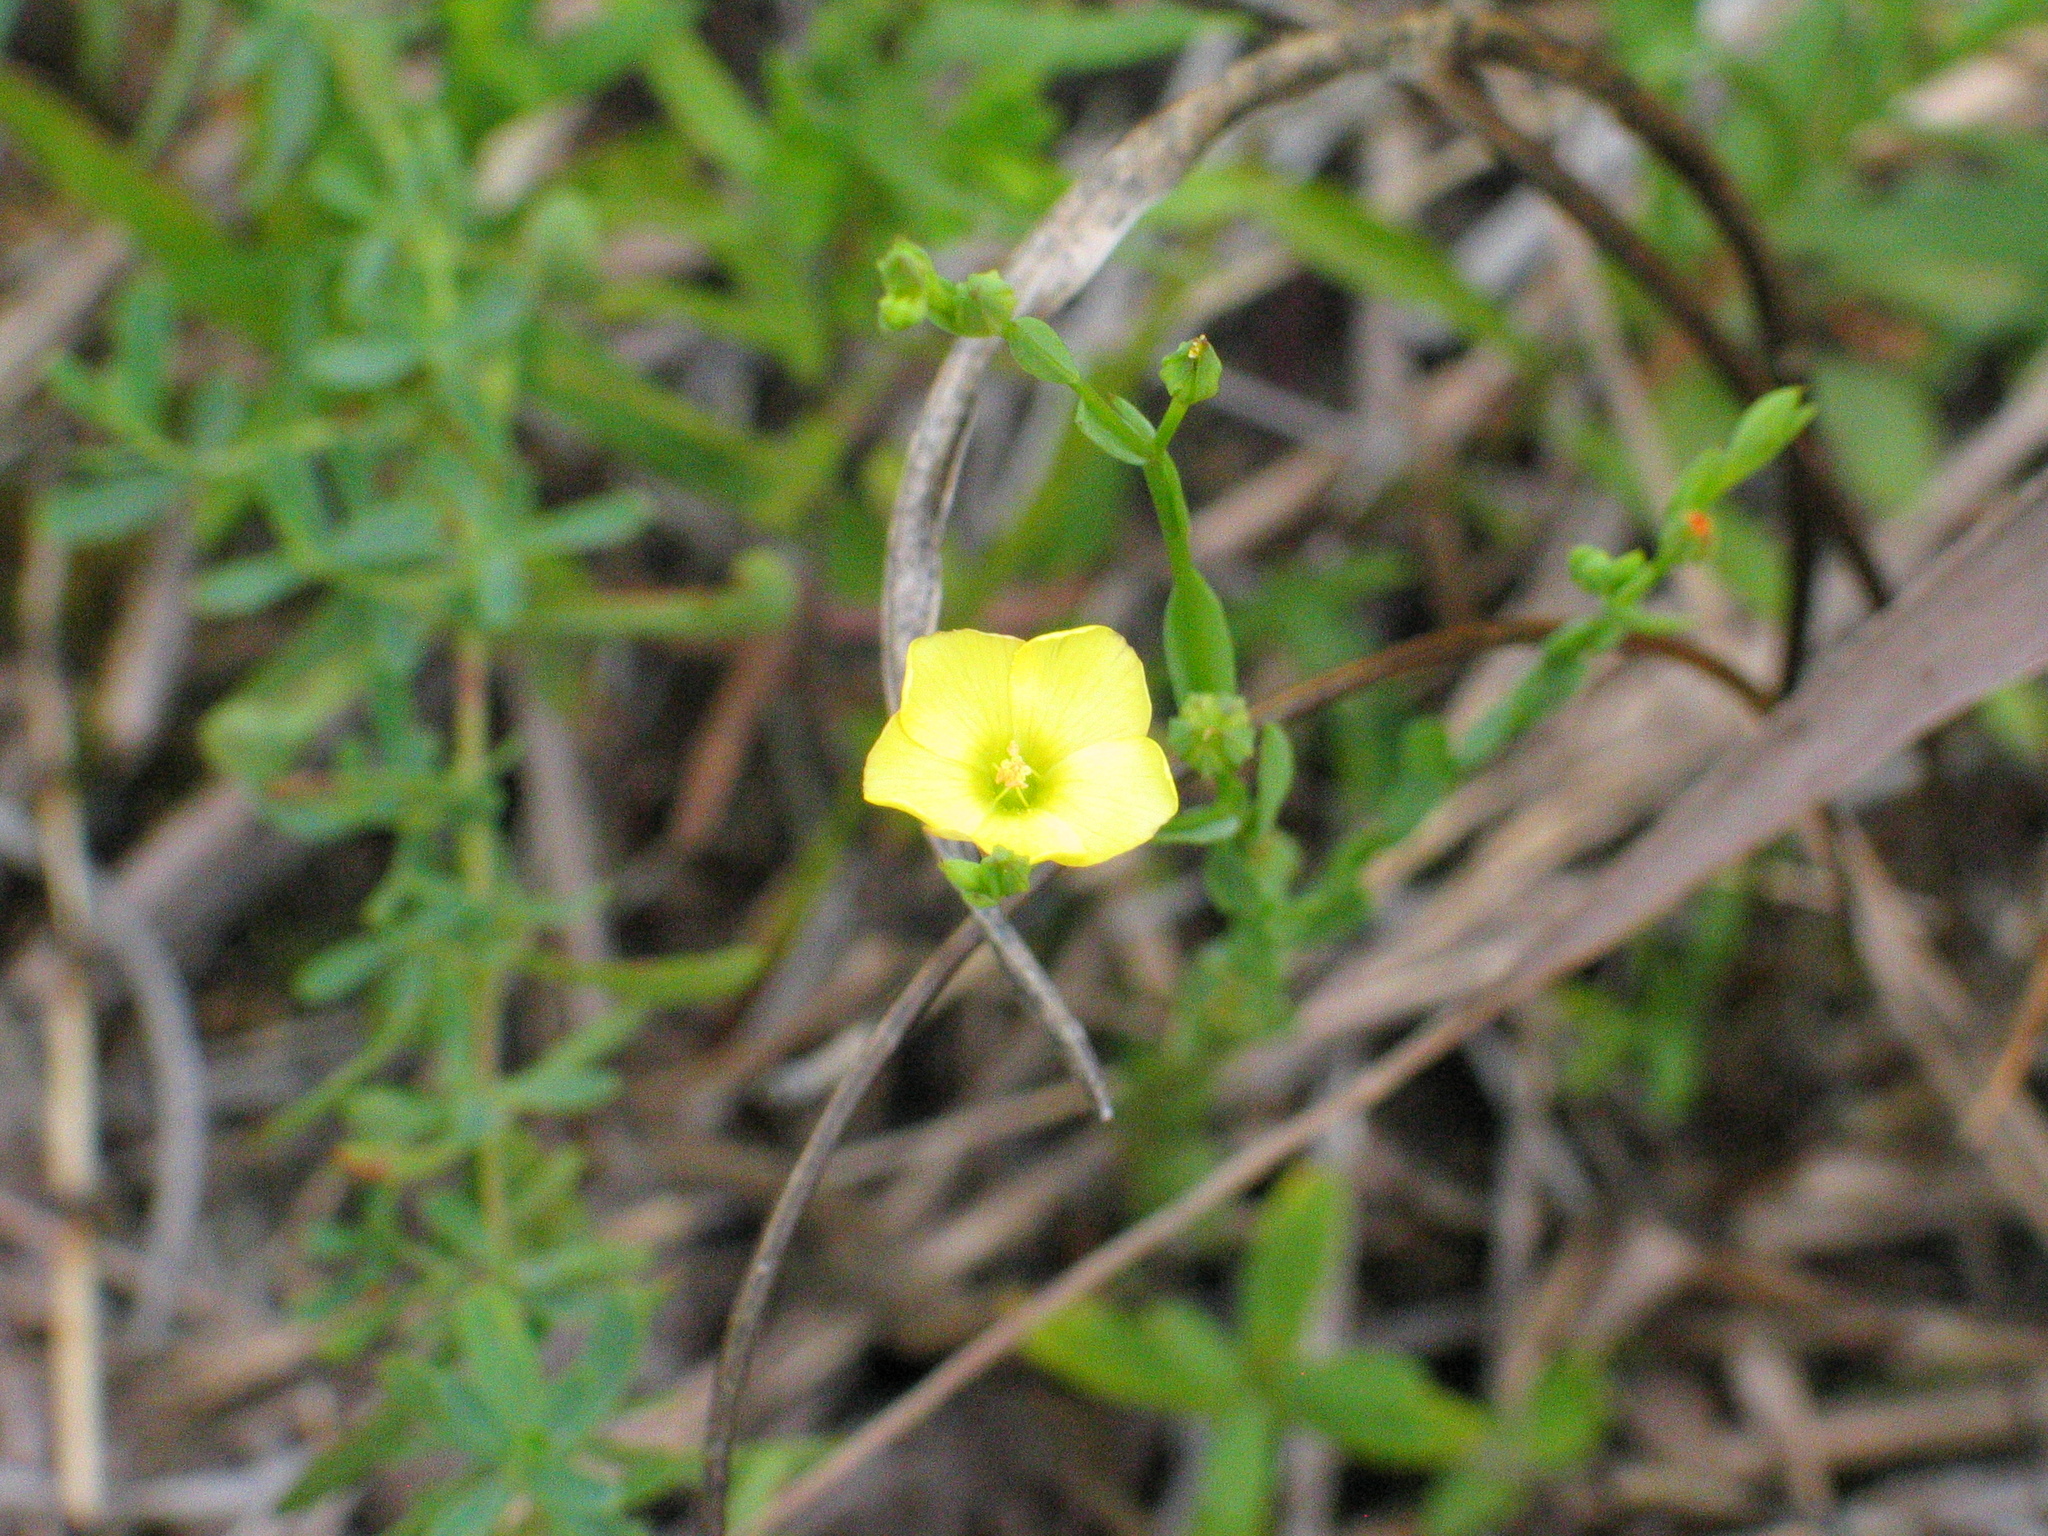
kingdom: Plantae
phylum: Tracheophyta
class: Magnoliopsida
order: Malpighiales
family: Linaceae
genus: Linum
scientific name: Linum medium
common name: Stiff yellow flax
